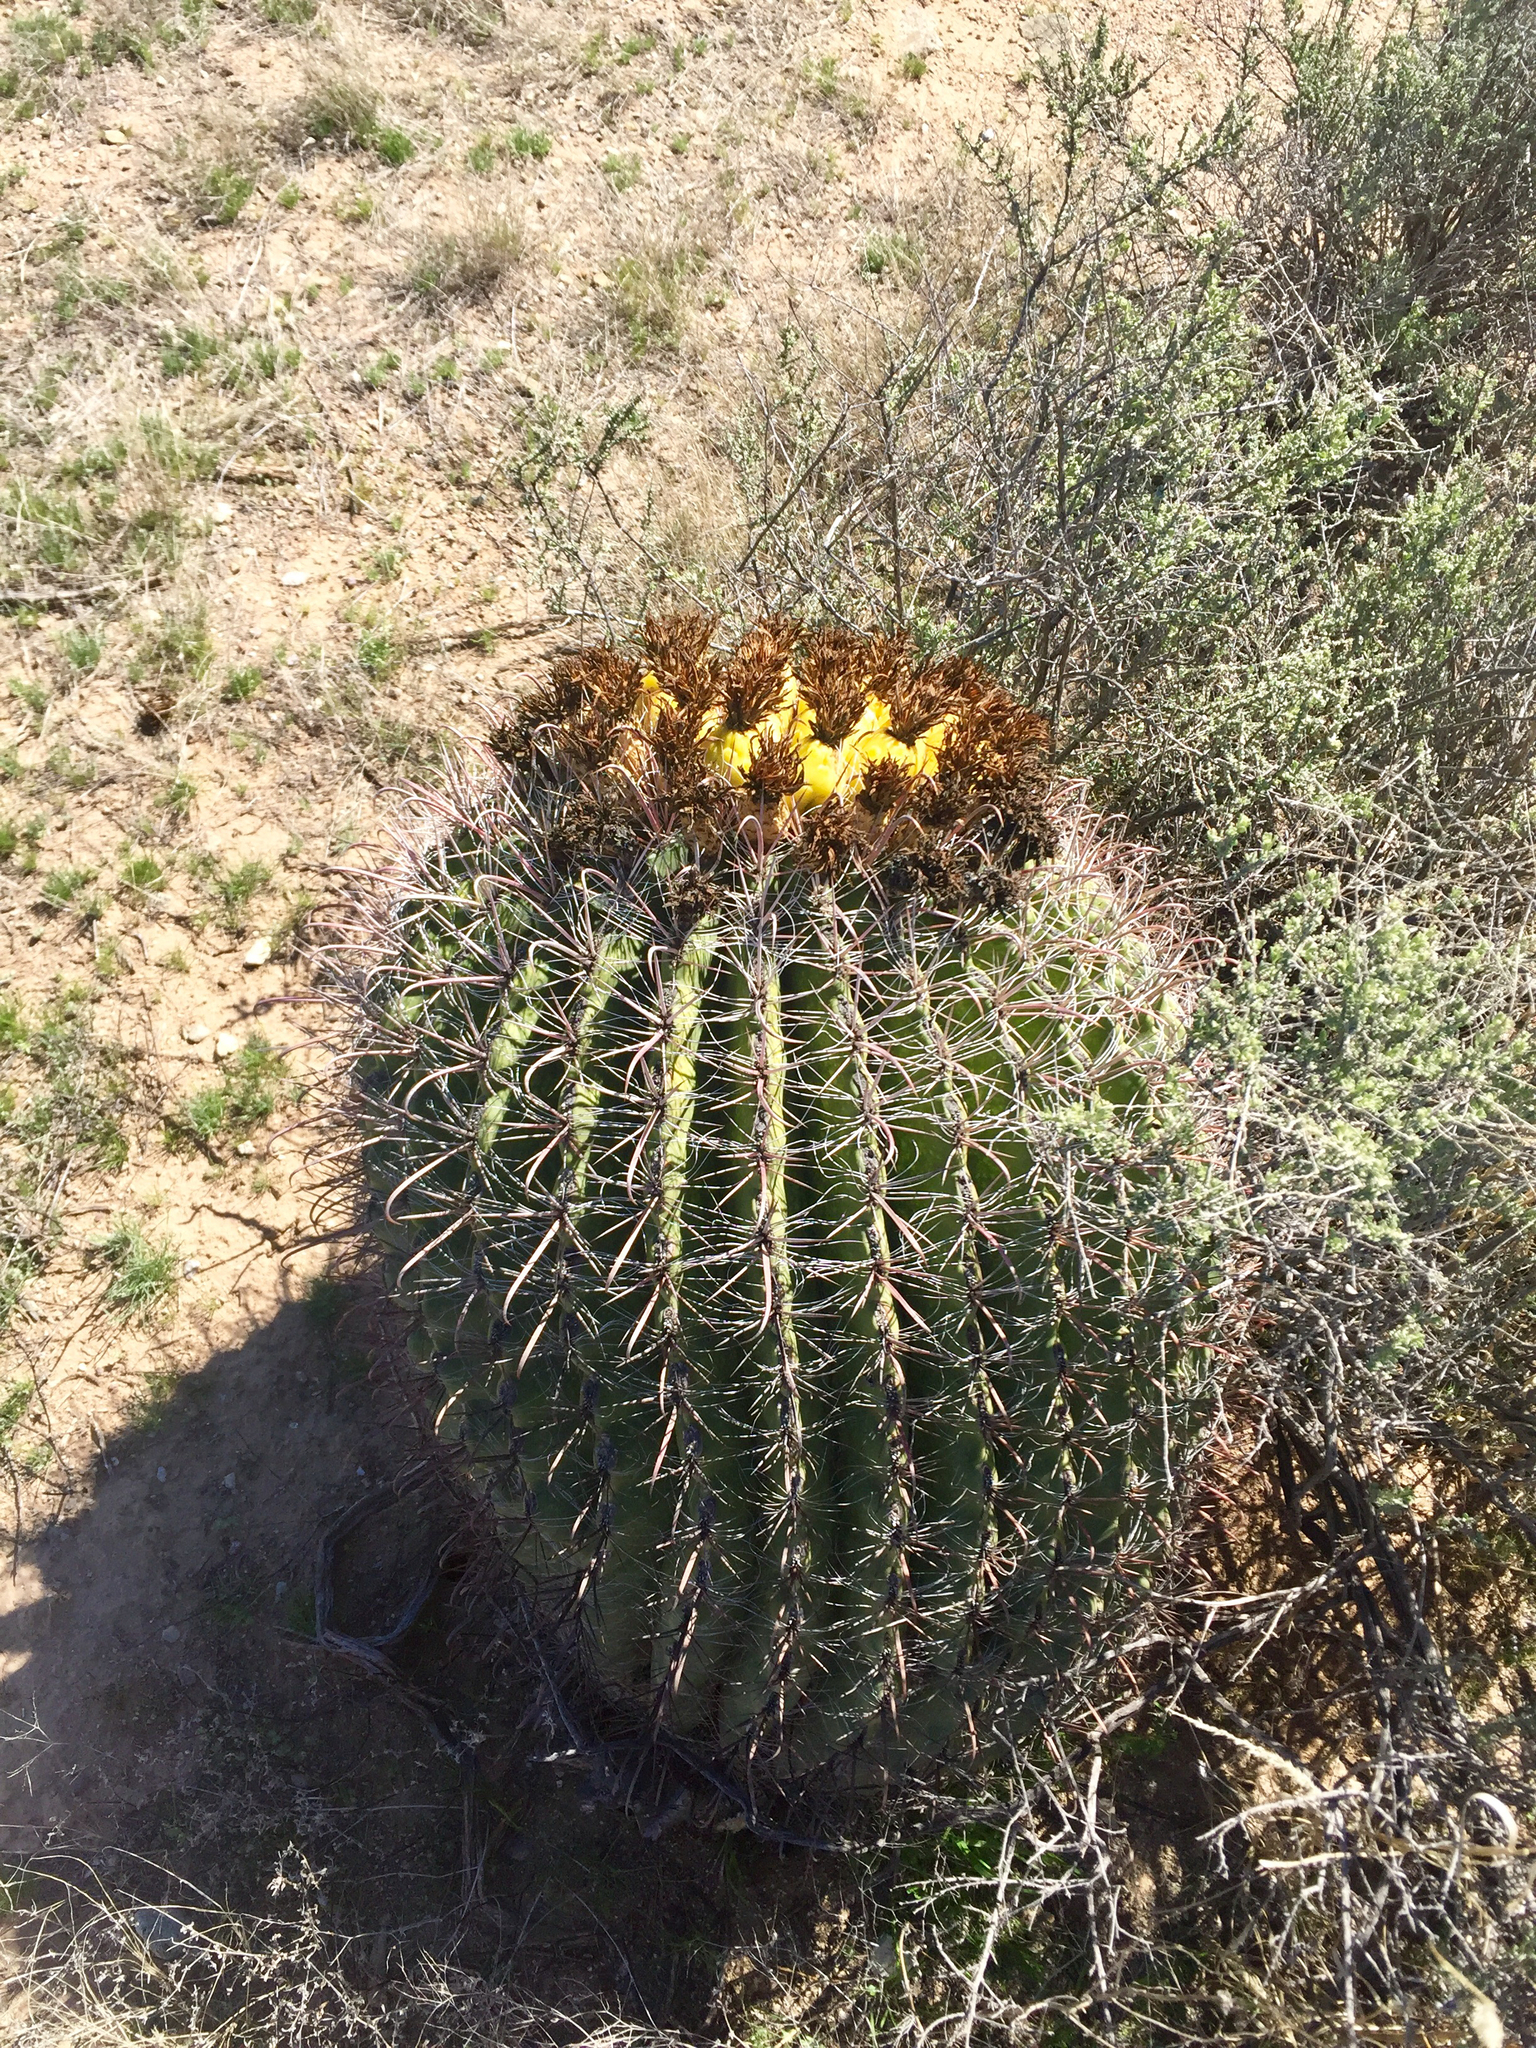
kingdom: Plantae
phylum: Tracheophyta
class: Magnoliopsida
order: Caryophyllales
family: Cactaceae
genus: Ferocactus
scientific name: Ferocactus wislizeni
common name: Candy barrel cactus
